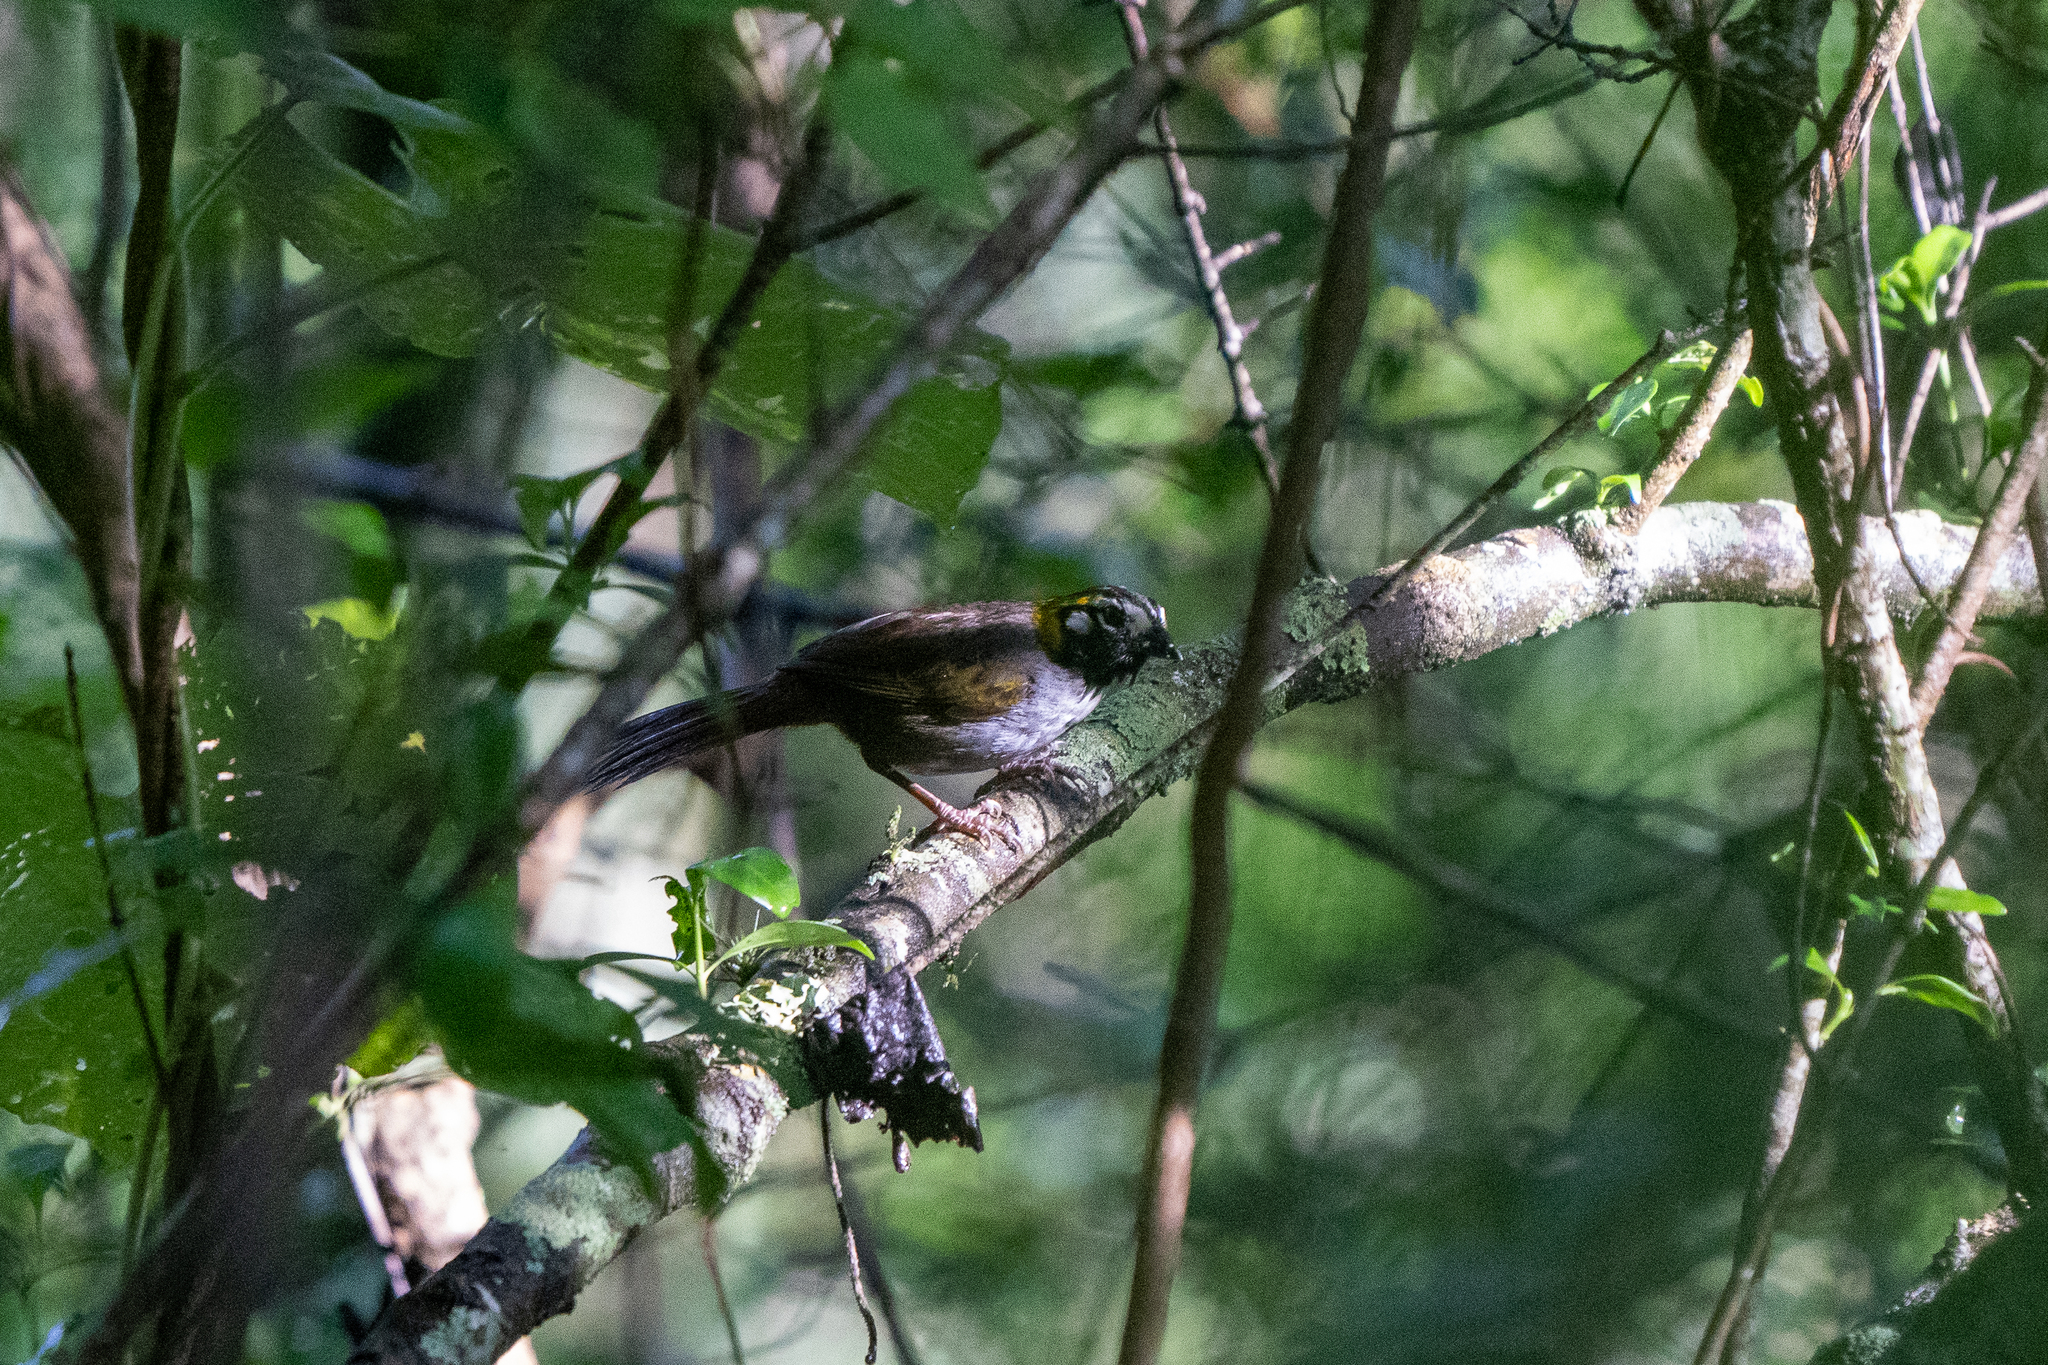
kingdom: Animalia
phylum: Chordata
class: Aves
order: Passeriformes
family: Passerellidae
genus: Melozone
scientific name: Melozone leucotis
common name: White-eared ground-sparrow
